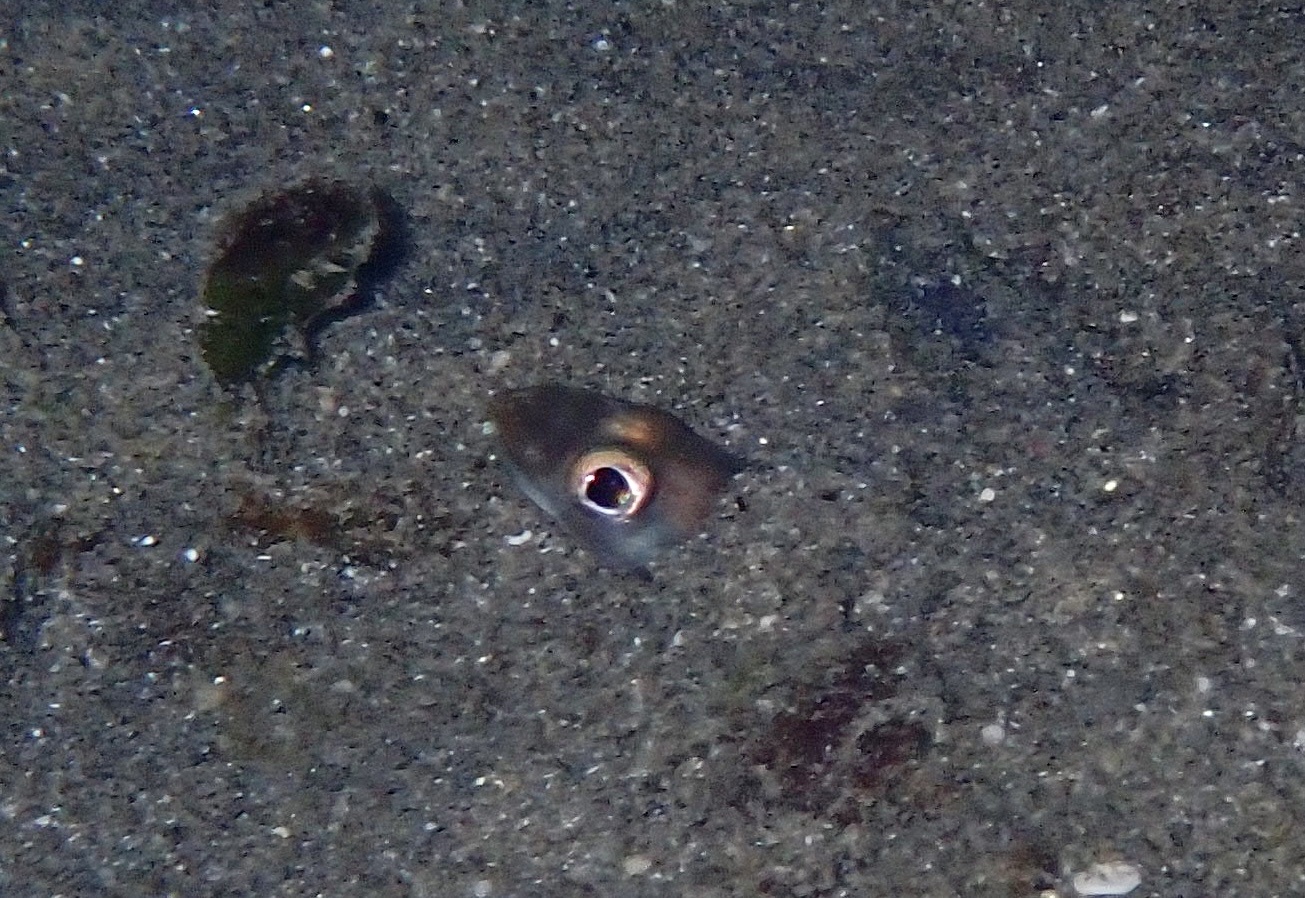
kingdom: Animalia
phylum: Chordata
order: Anguilliformes
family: Congridae
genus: Ariosoma
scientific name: Ariosoma sanzoi
